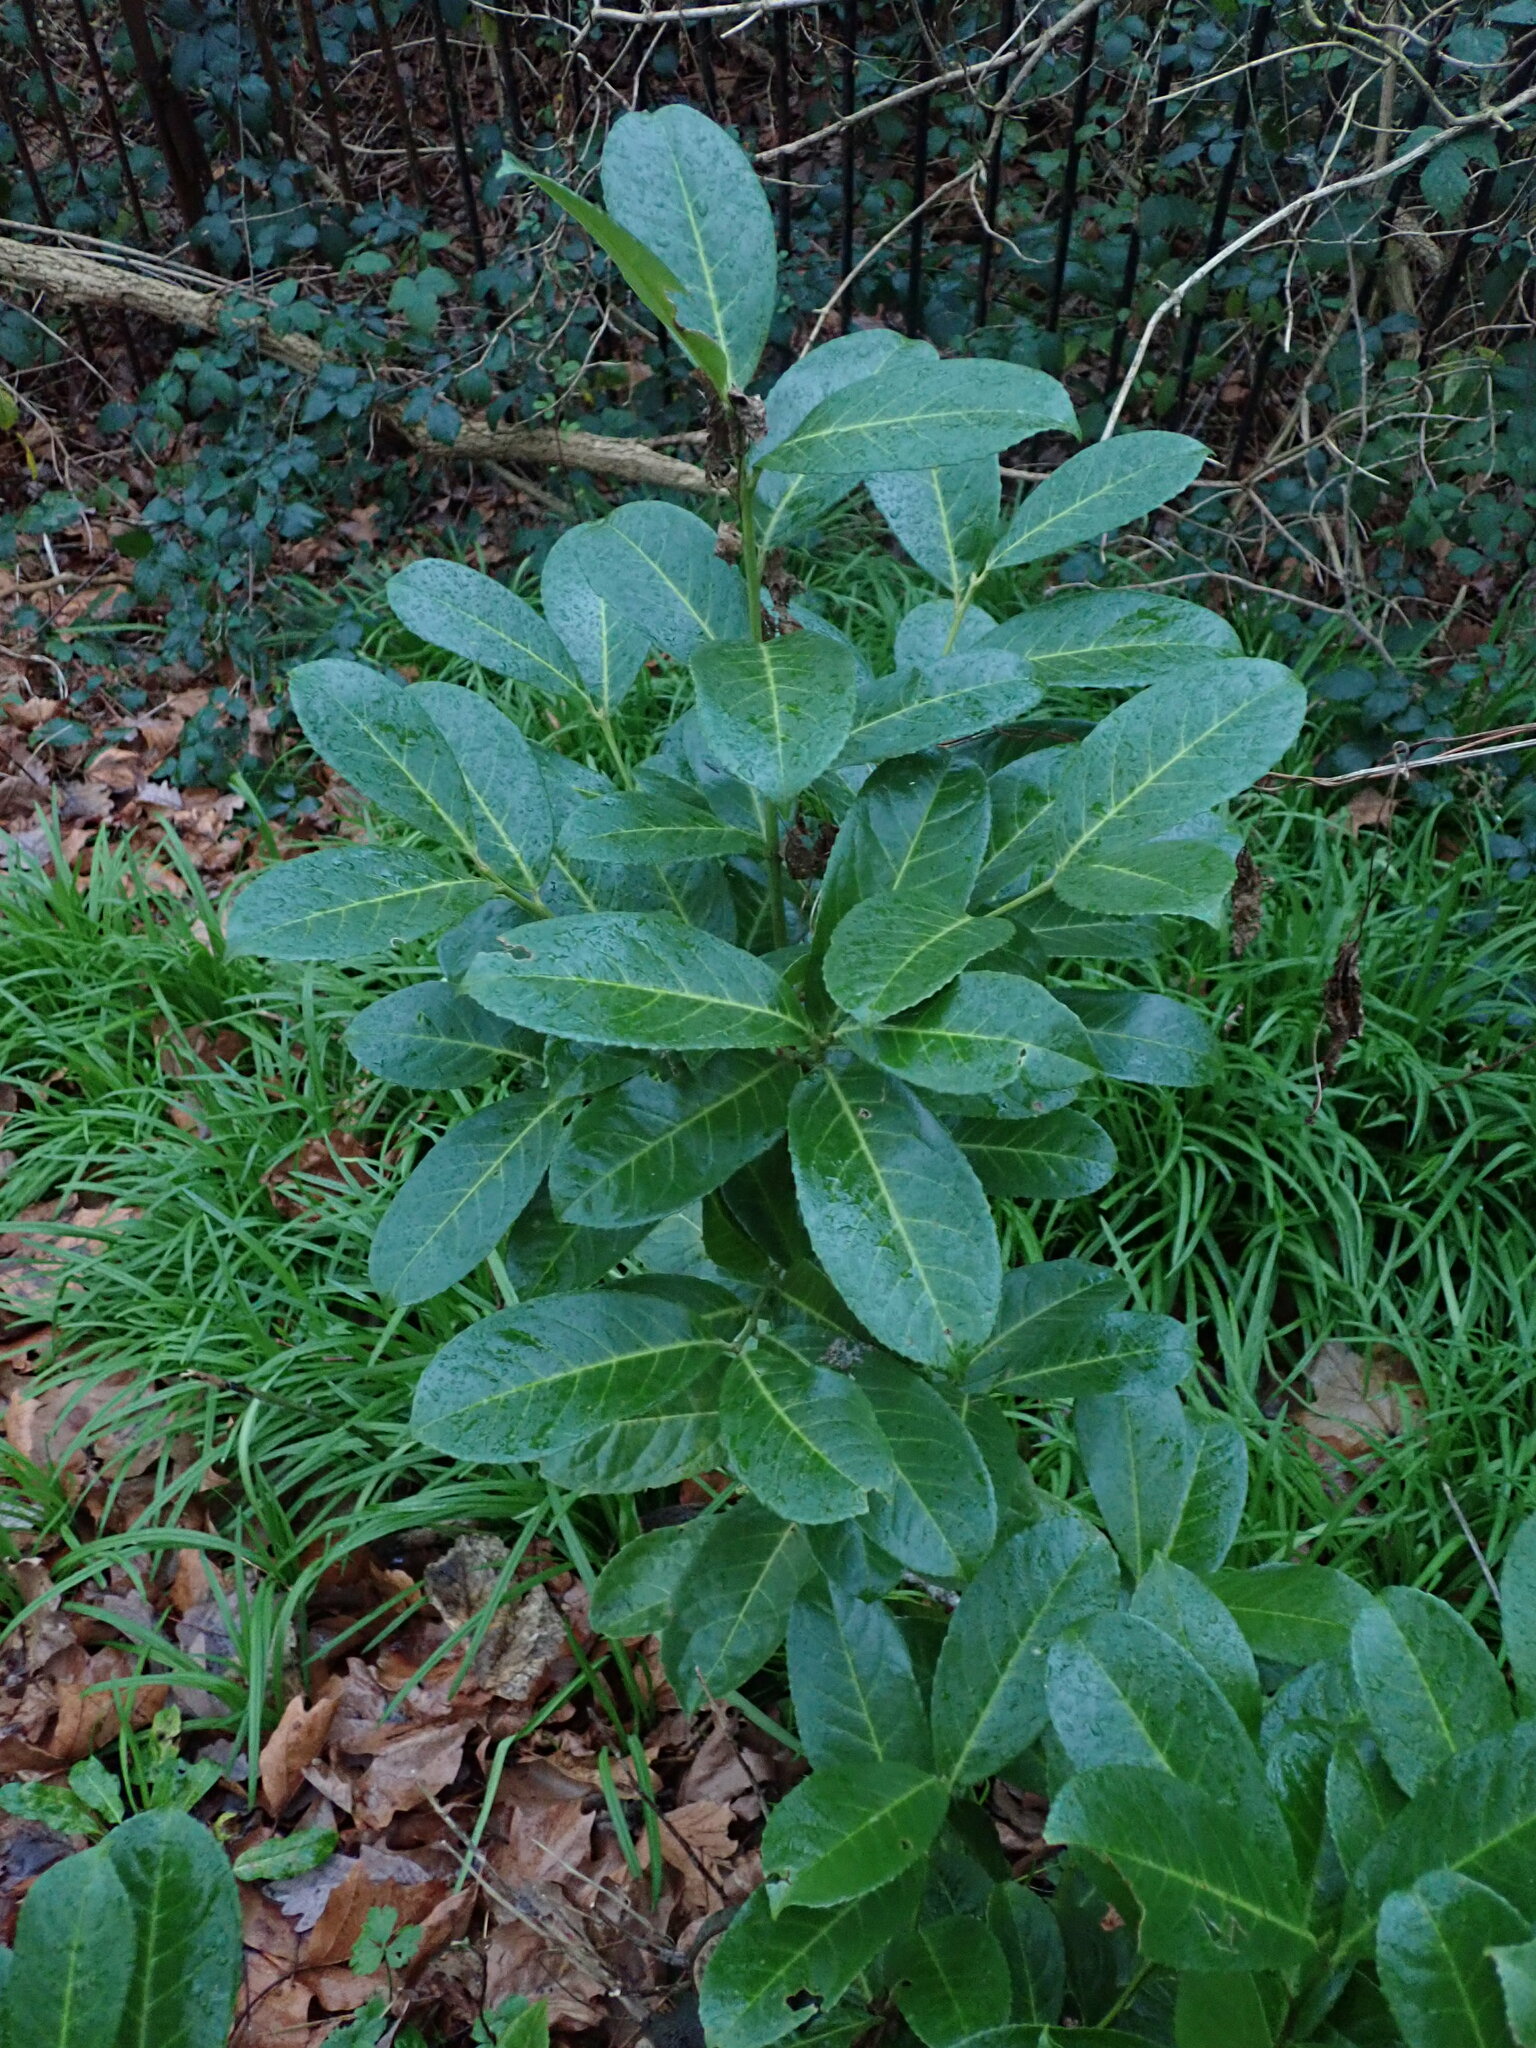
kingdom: Plantae
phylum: Tracheophyta
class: Magnoliopsida
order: Rosales
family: Rosaceae
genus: Prunus
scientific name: Prunus laurocerasus
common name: Cherry laurel
